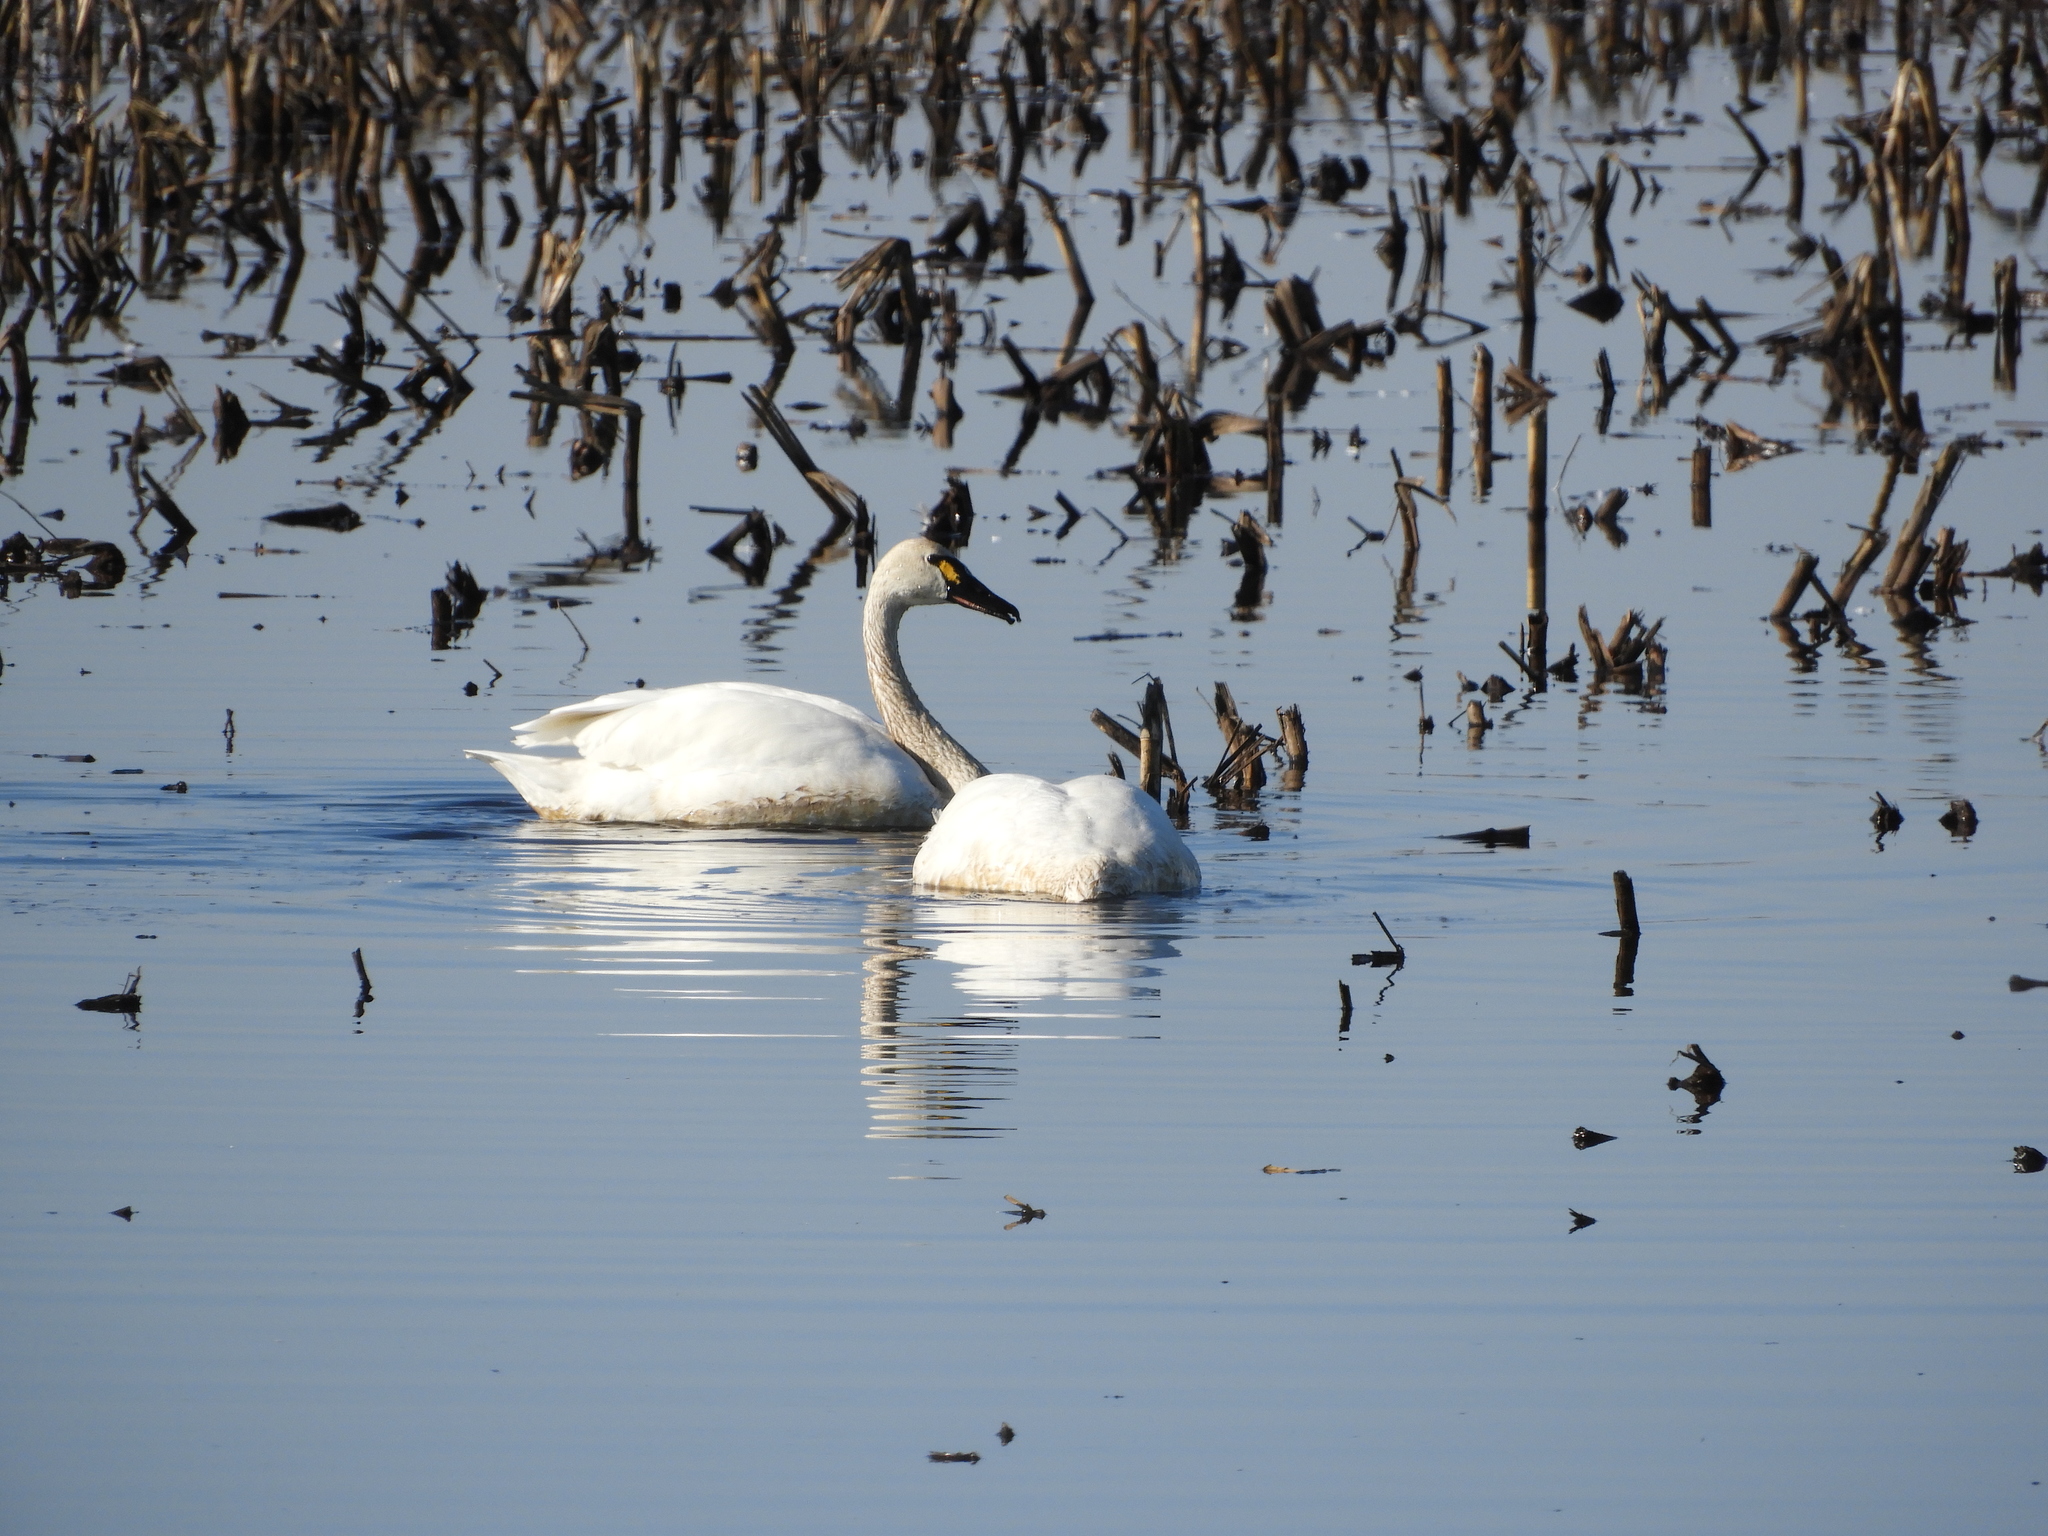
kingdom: Animalia
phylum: Chordata
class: Aves
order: Anseriformes
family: Anatidae
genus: Cygnus
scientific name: Cygnus columbianus
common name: Tundra swan
